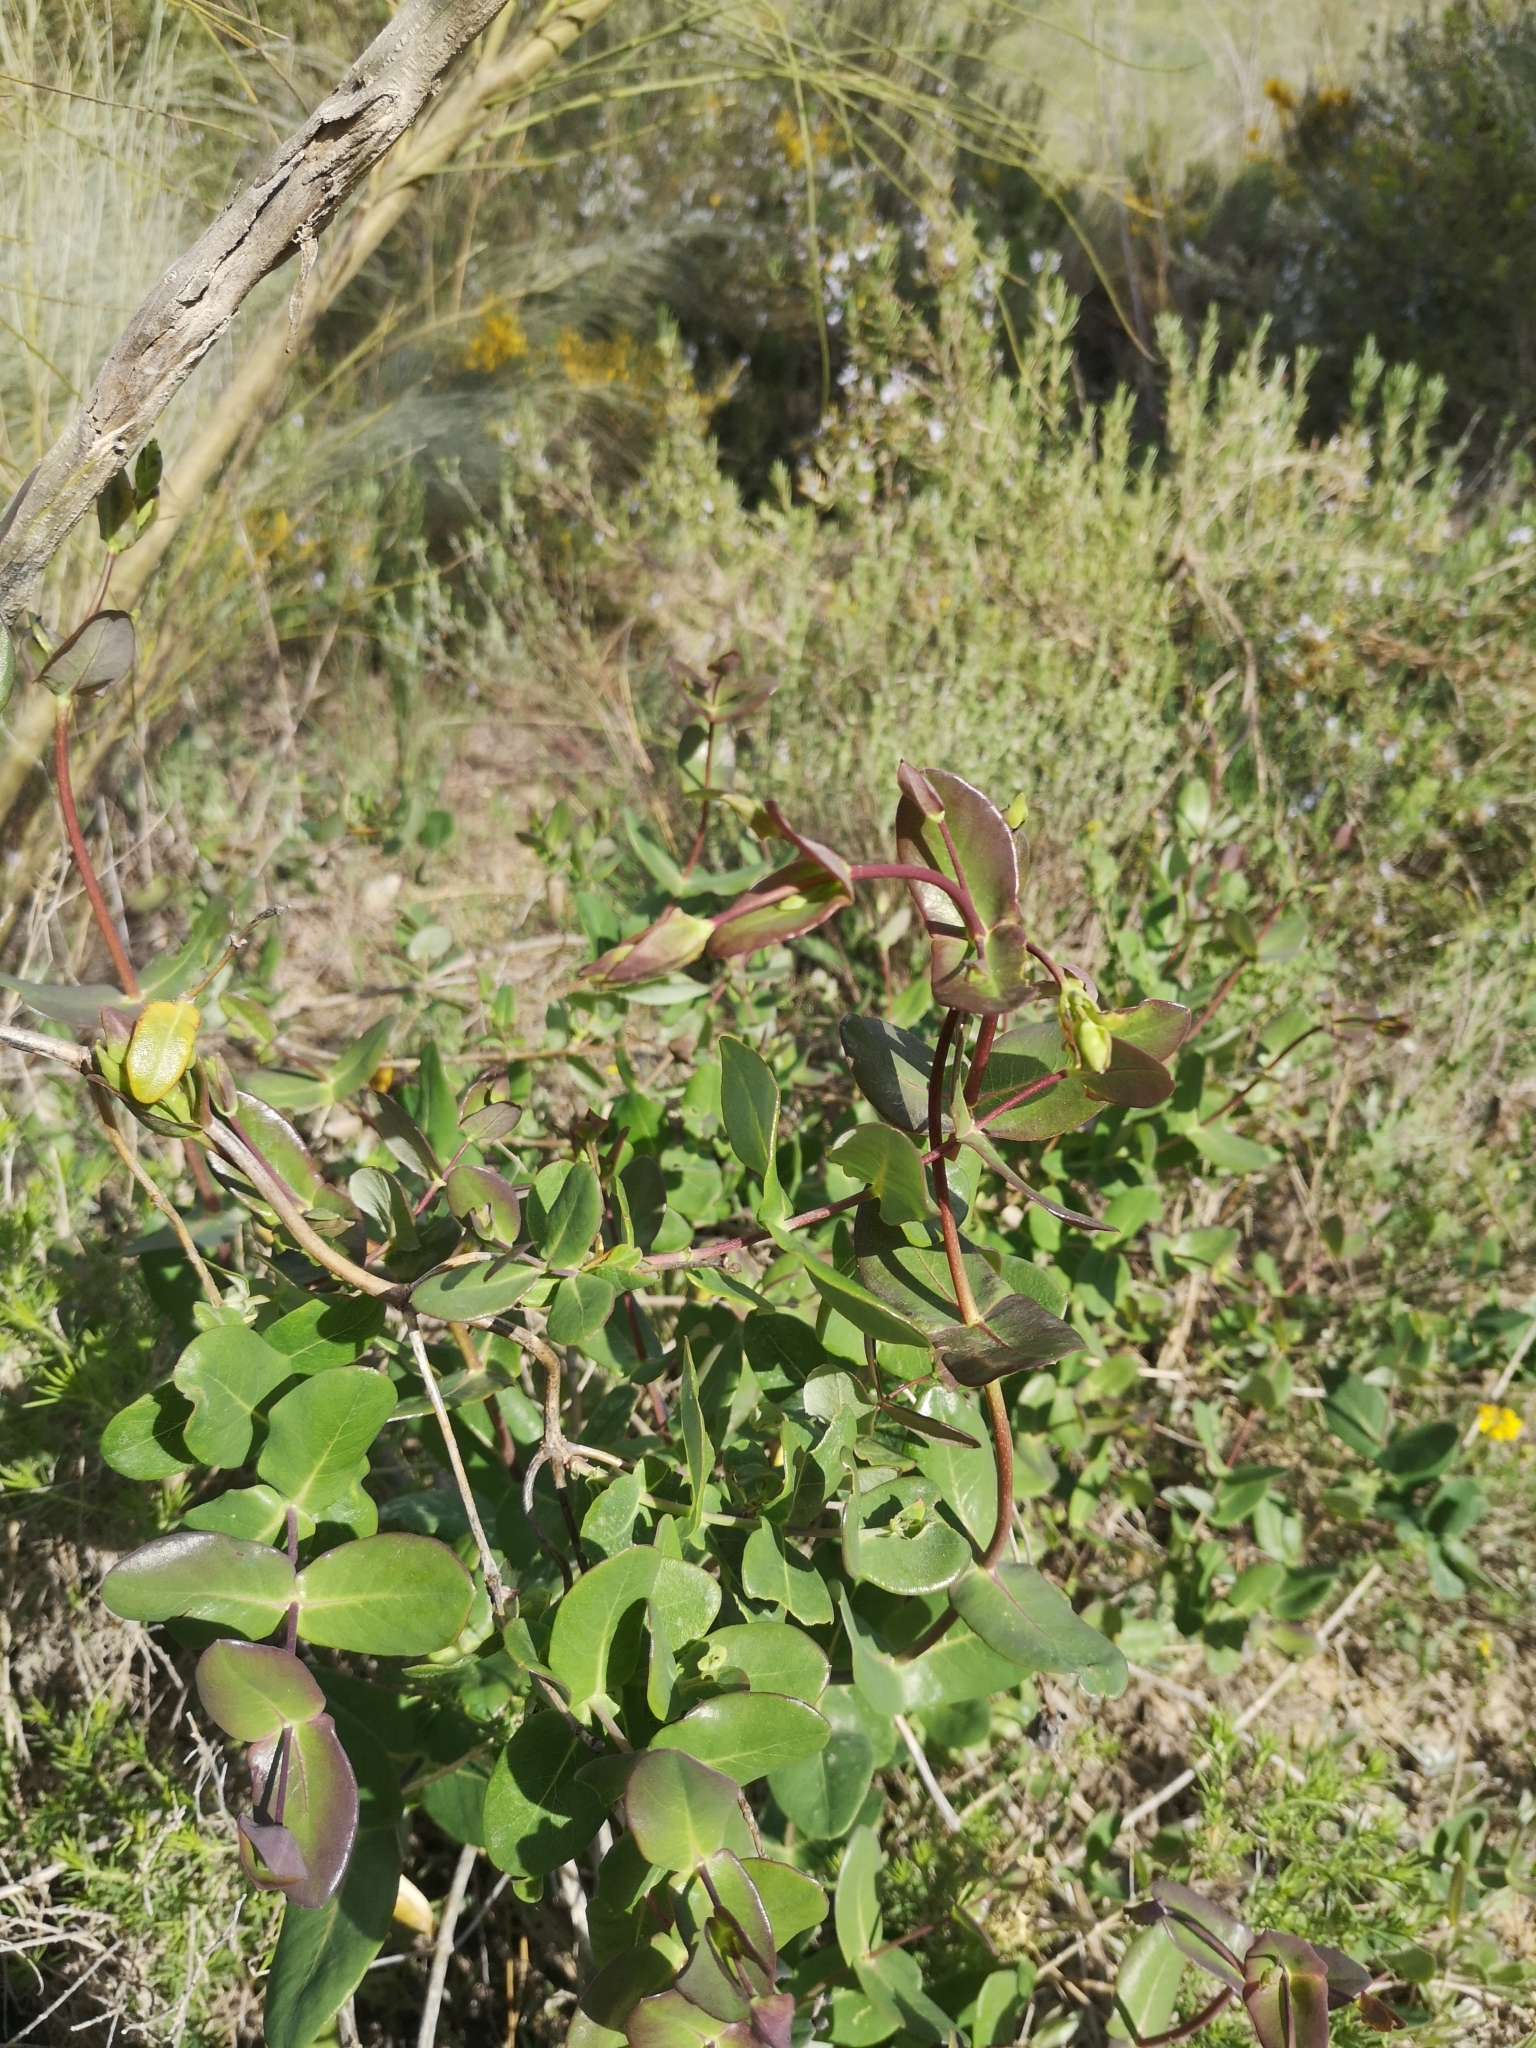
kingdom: Plantae
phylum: Tracheophyta
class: Magnoliopsida
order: Dipsacales
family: Caprifoliaceae
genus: Lonicera
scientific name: Lonicera implexa
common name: Minorca honeysuckle
